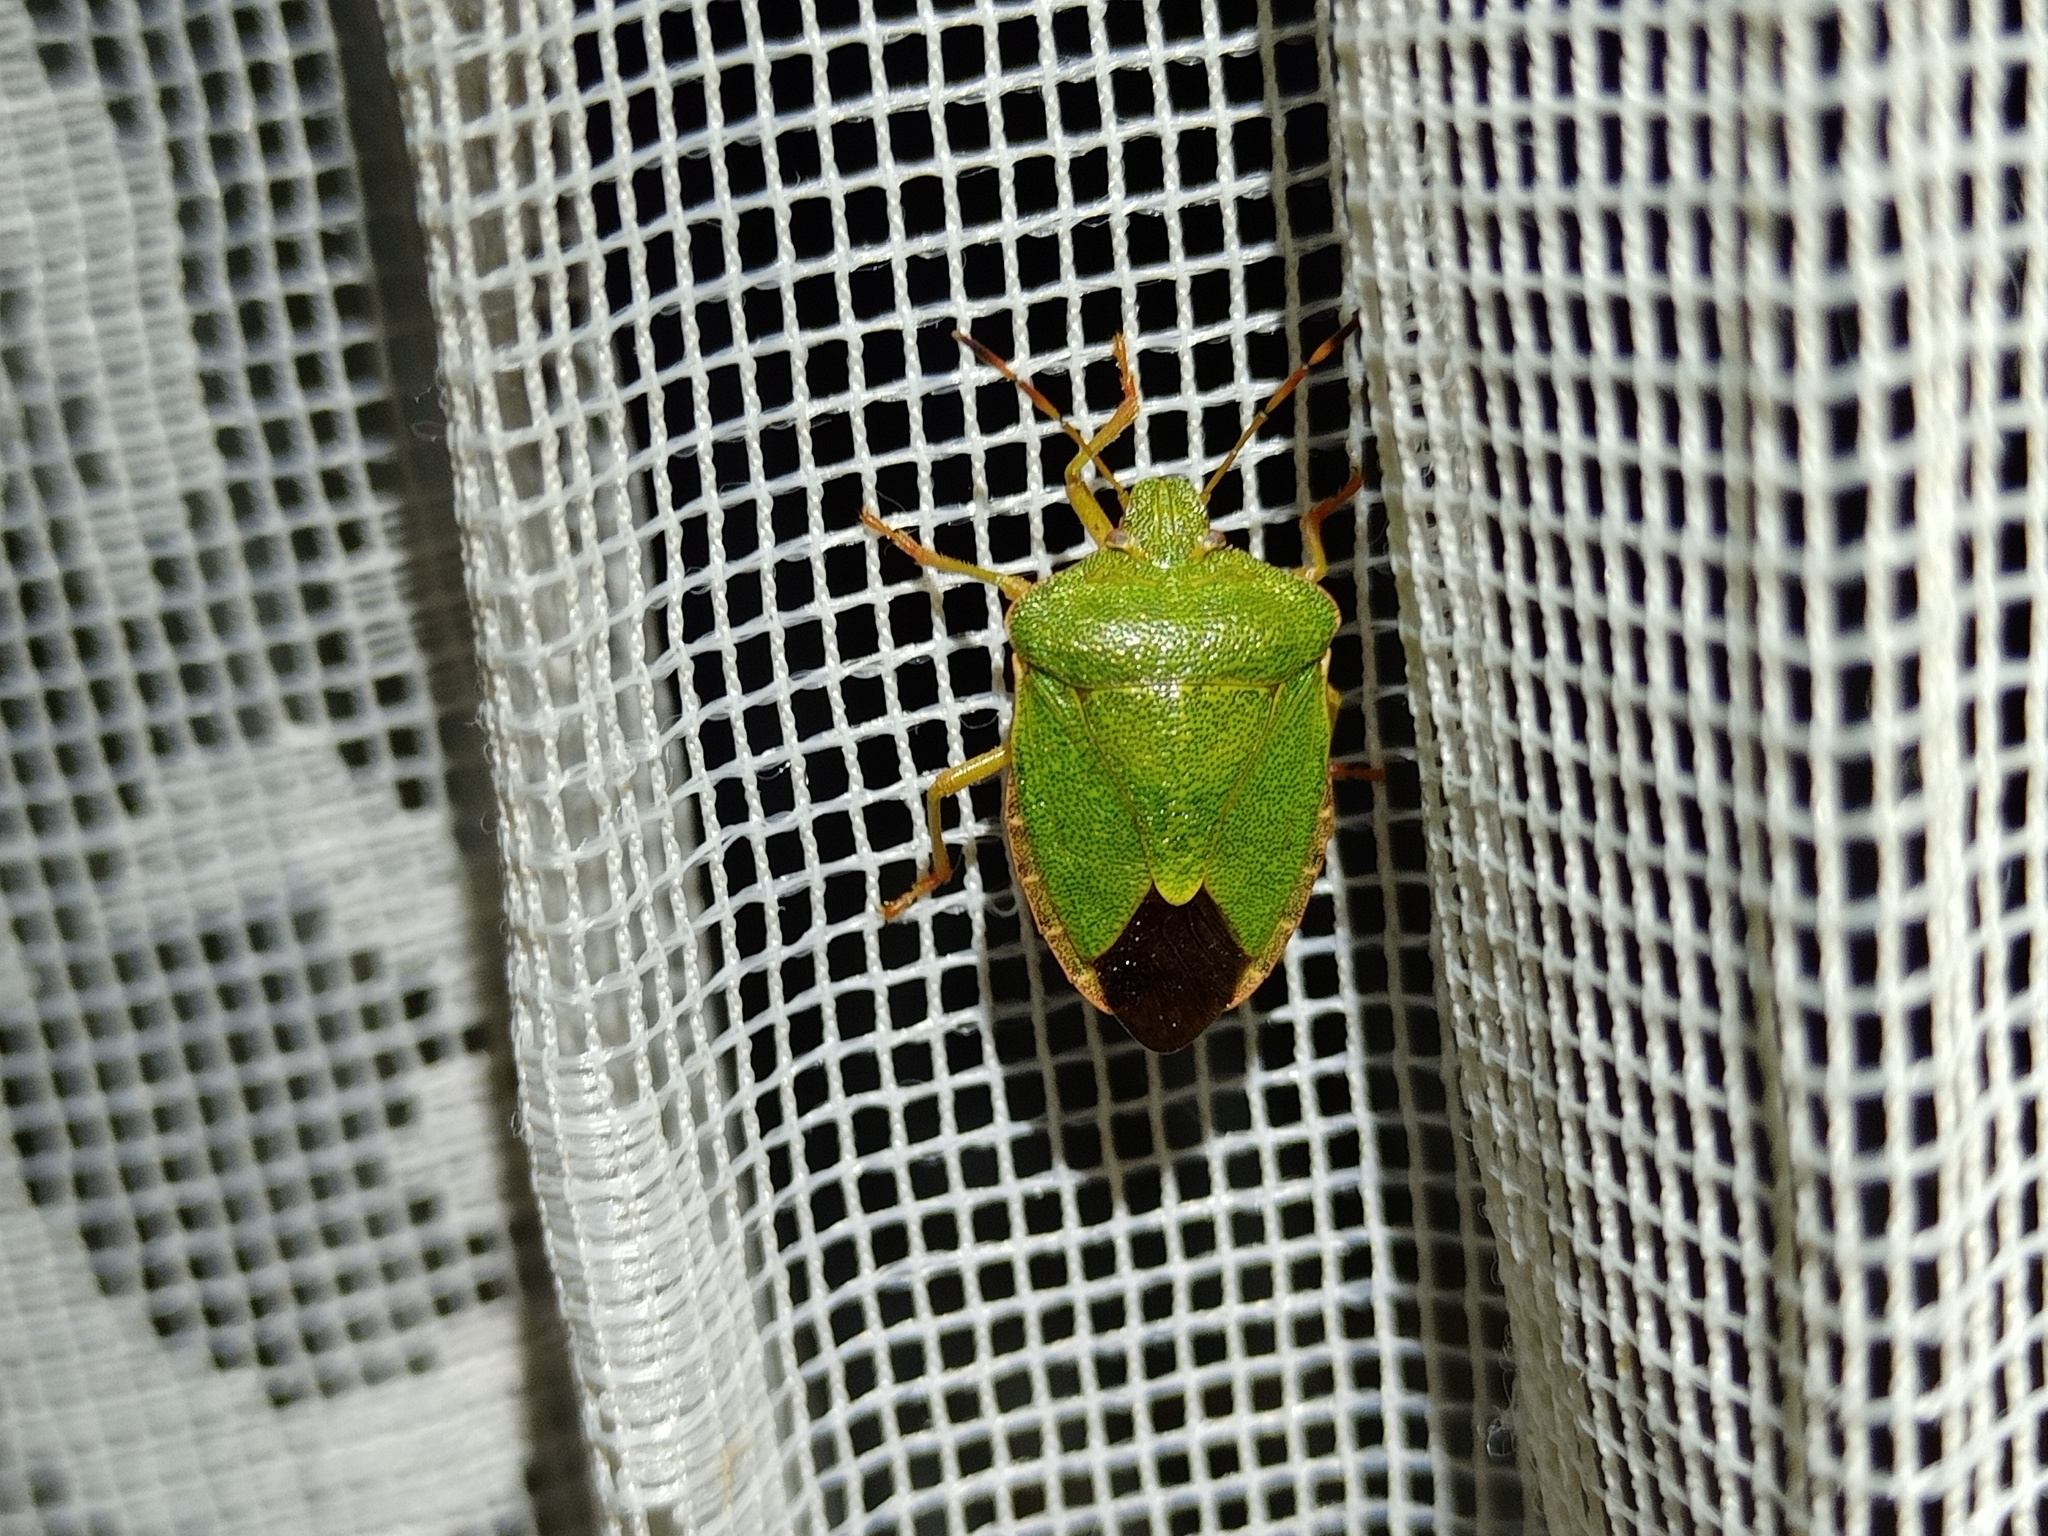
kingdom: Animalia
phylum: Arthropoda
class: Insecta
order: Hemiptera
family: Pentatomidae
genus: Palomena
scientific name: Palomena prasina
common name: Green shieldbug
